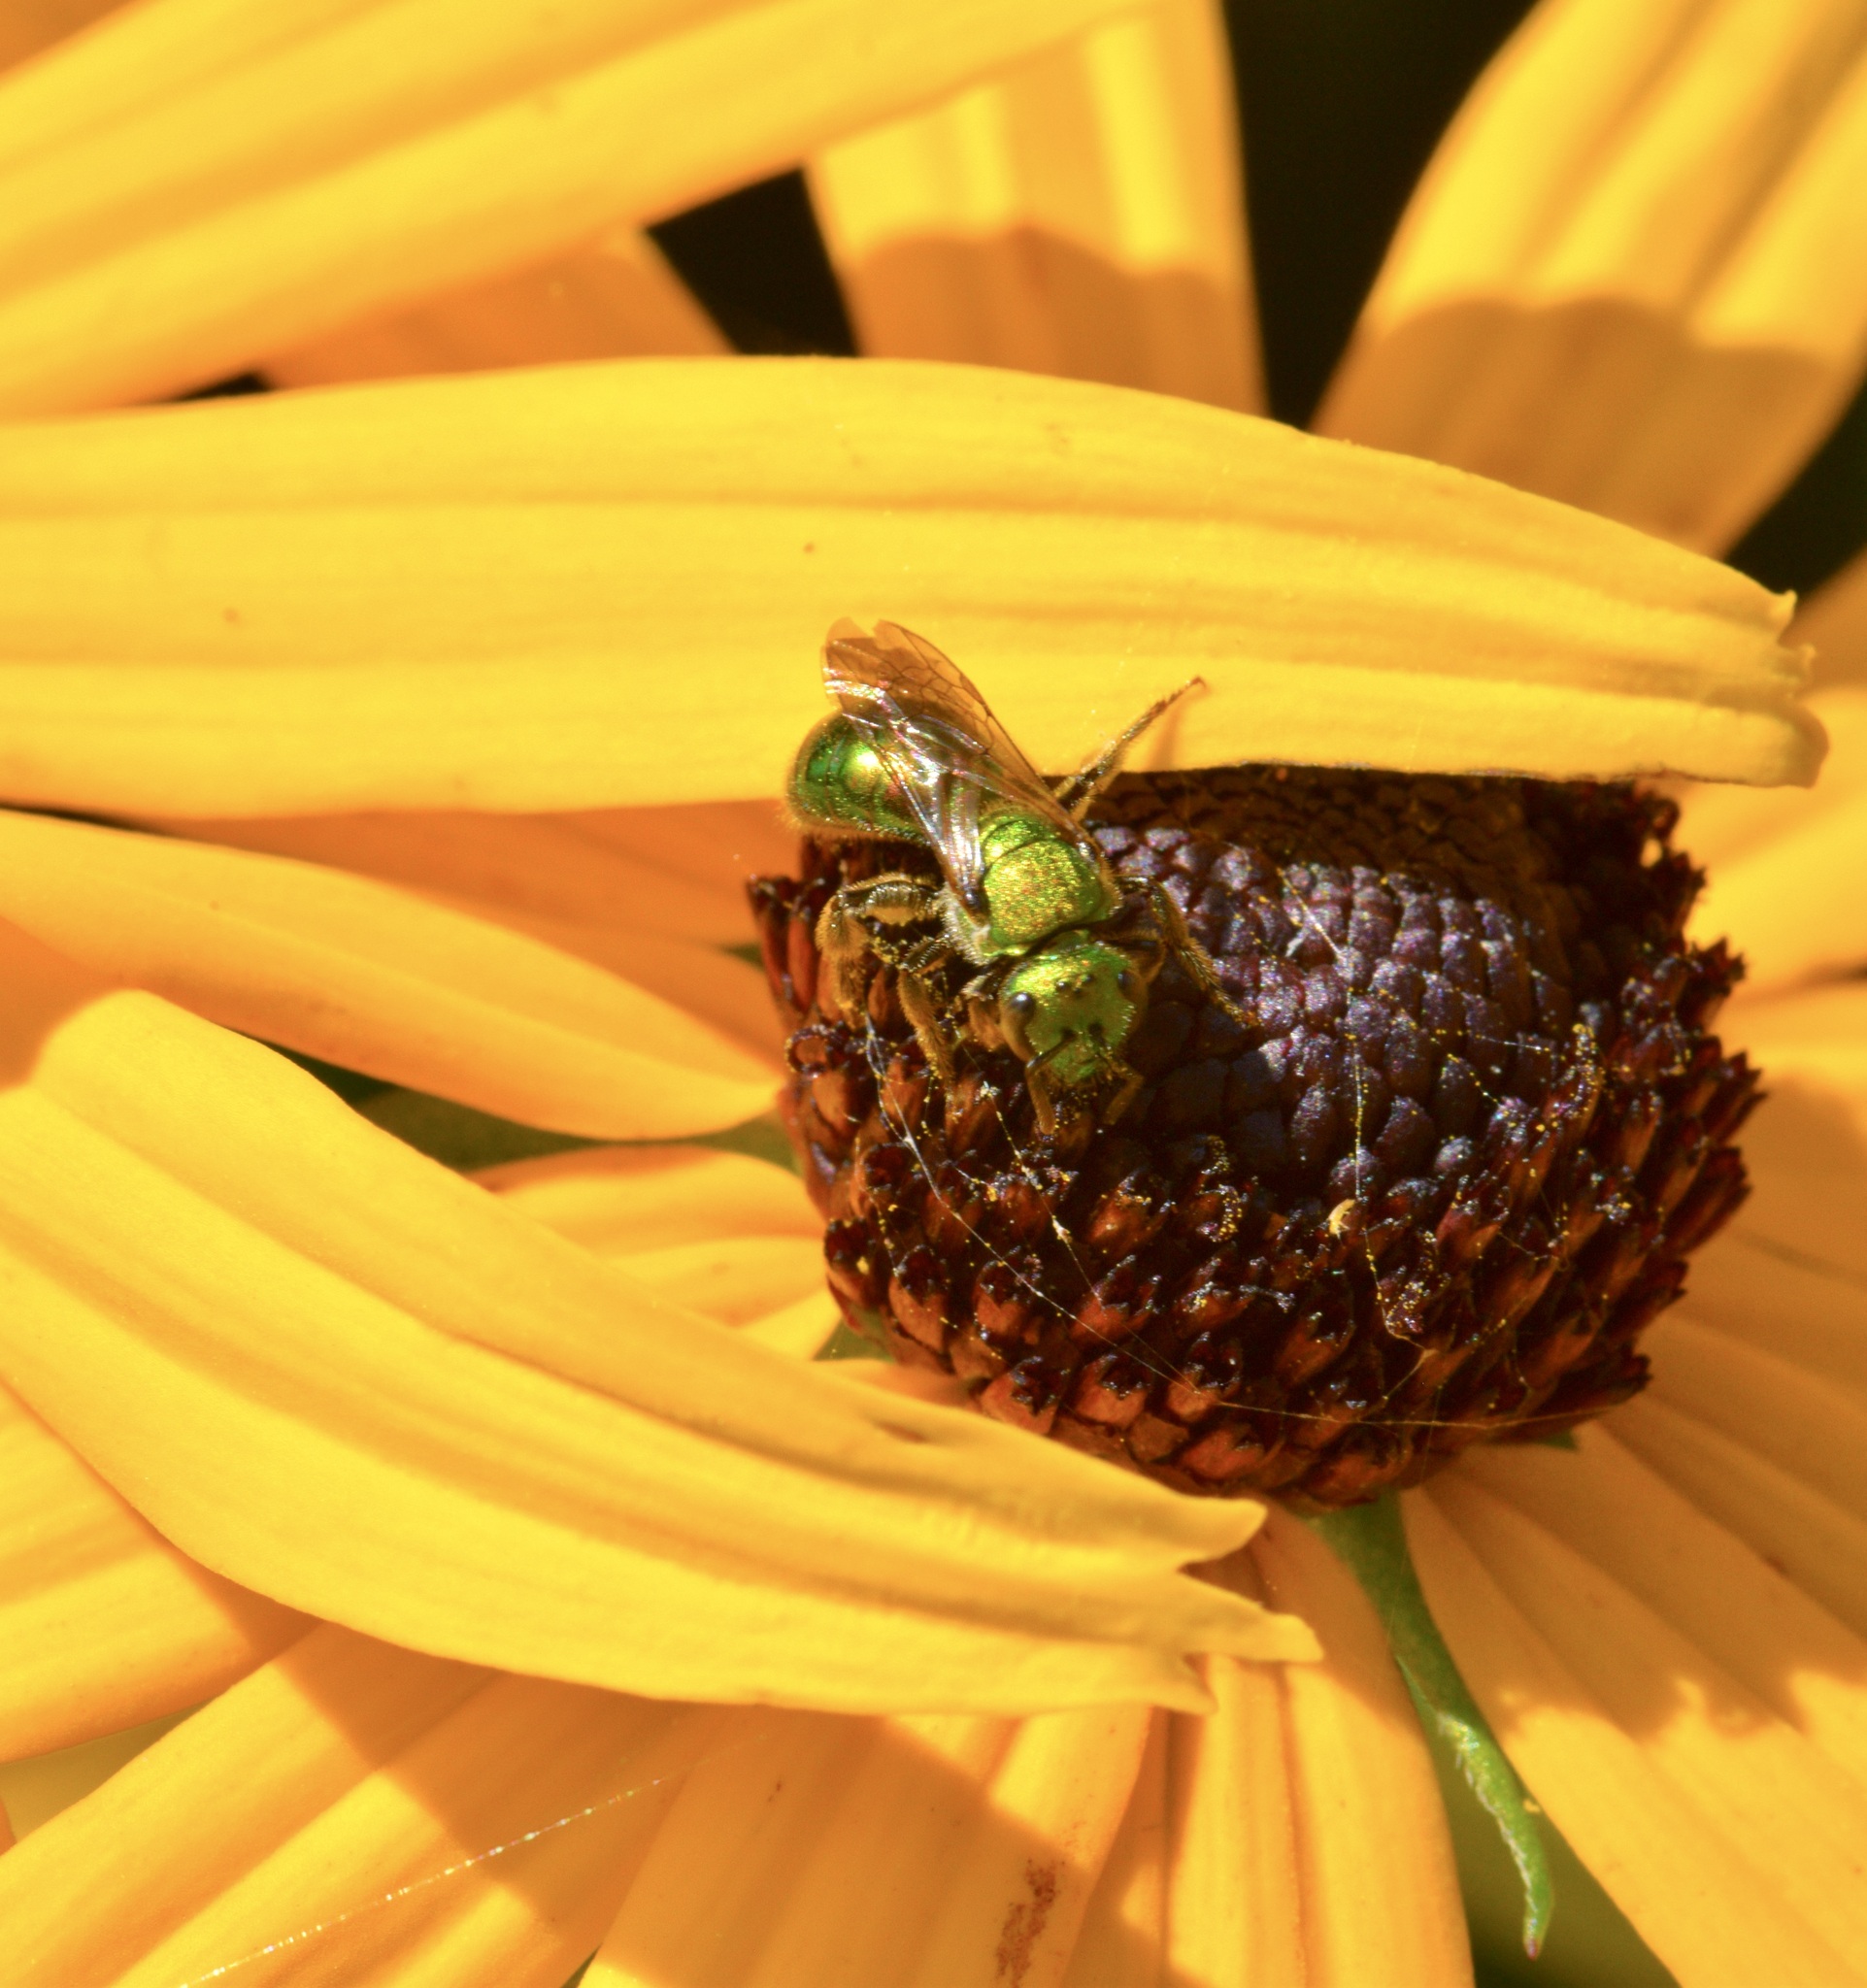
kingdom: Animalia
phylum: Arthropoda
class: Insecta
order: Hymenoptera
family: Halictidae
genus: Augochlora
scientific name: Augochlora pura
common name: Pure green sweat bee
